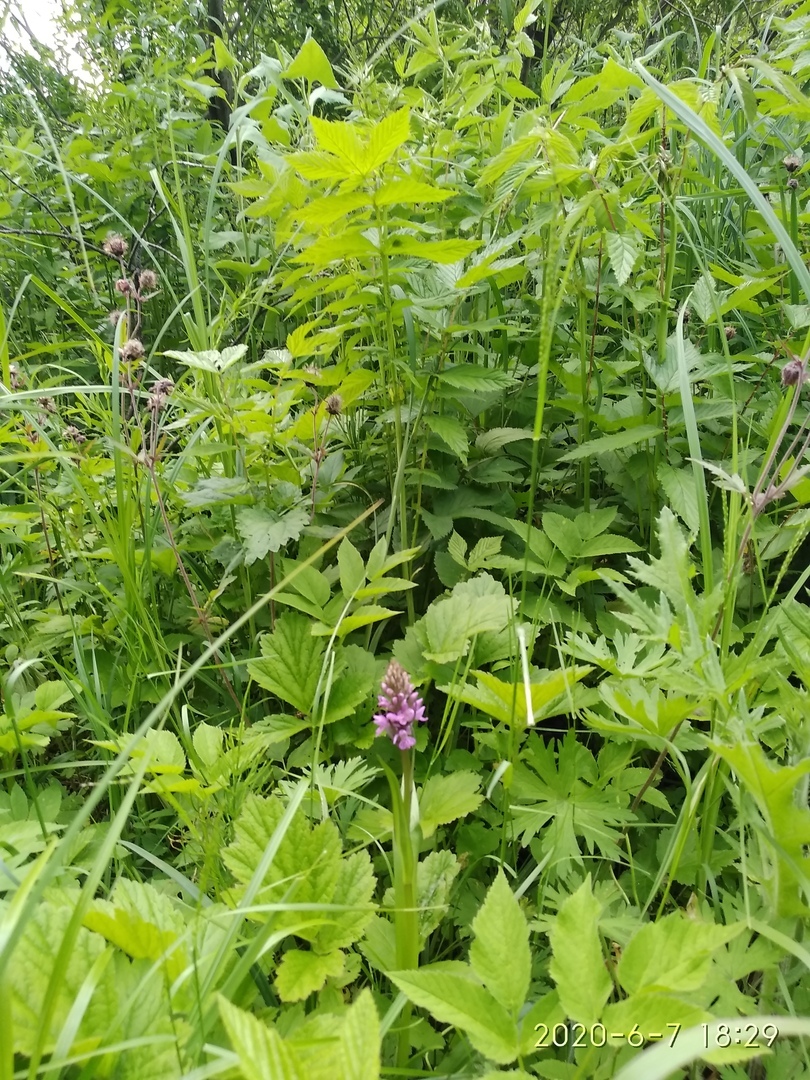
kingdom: Plantae
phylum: Tracheophyta
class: Liliopsida
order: Asparagales
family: Orchidaceae
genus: Dactylorhiza
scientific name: Dactylorhiza incarnata
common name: Early marsh-orchid
